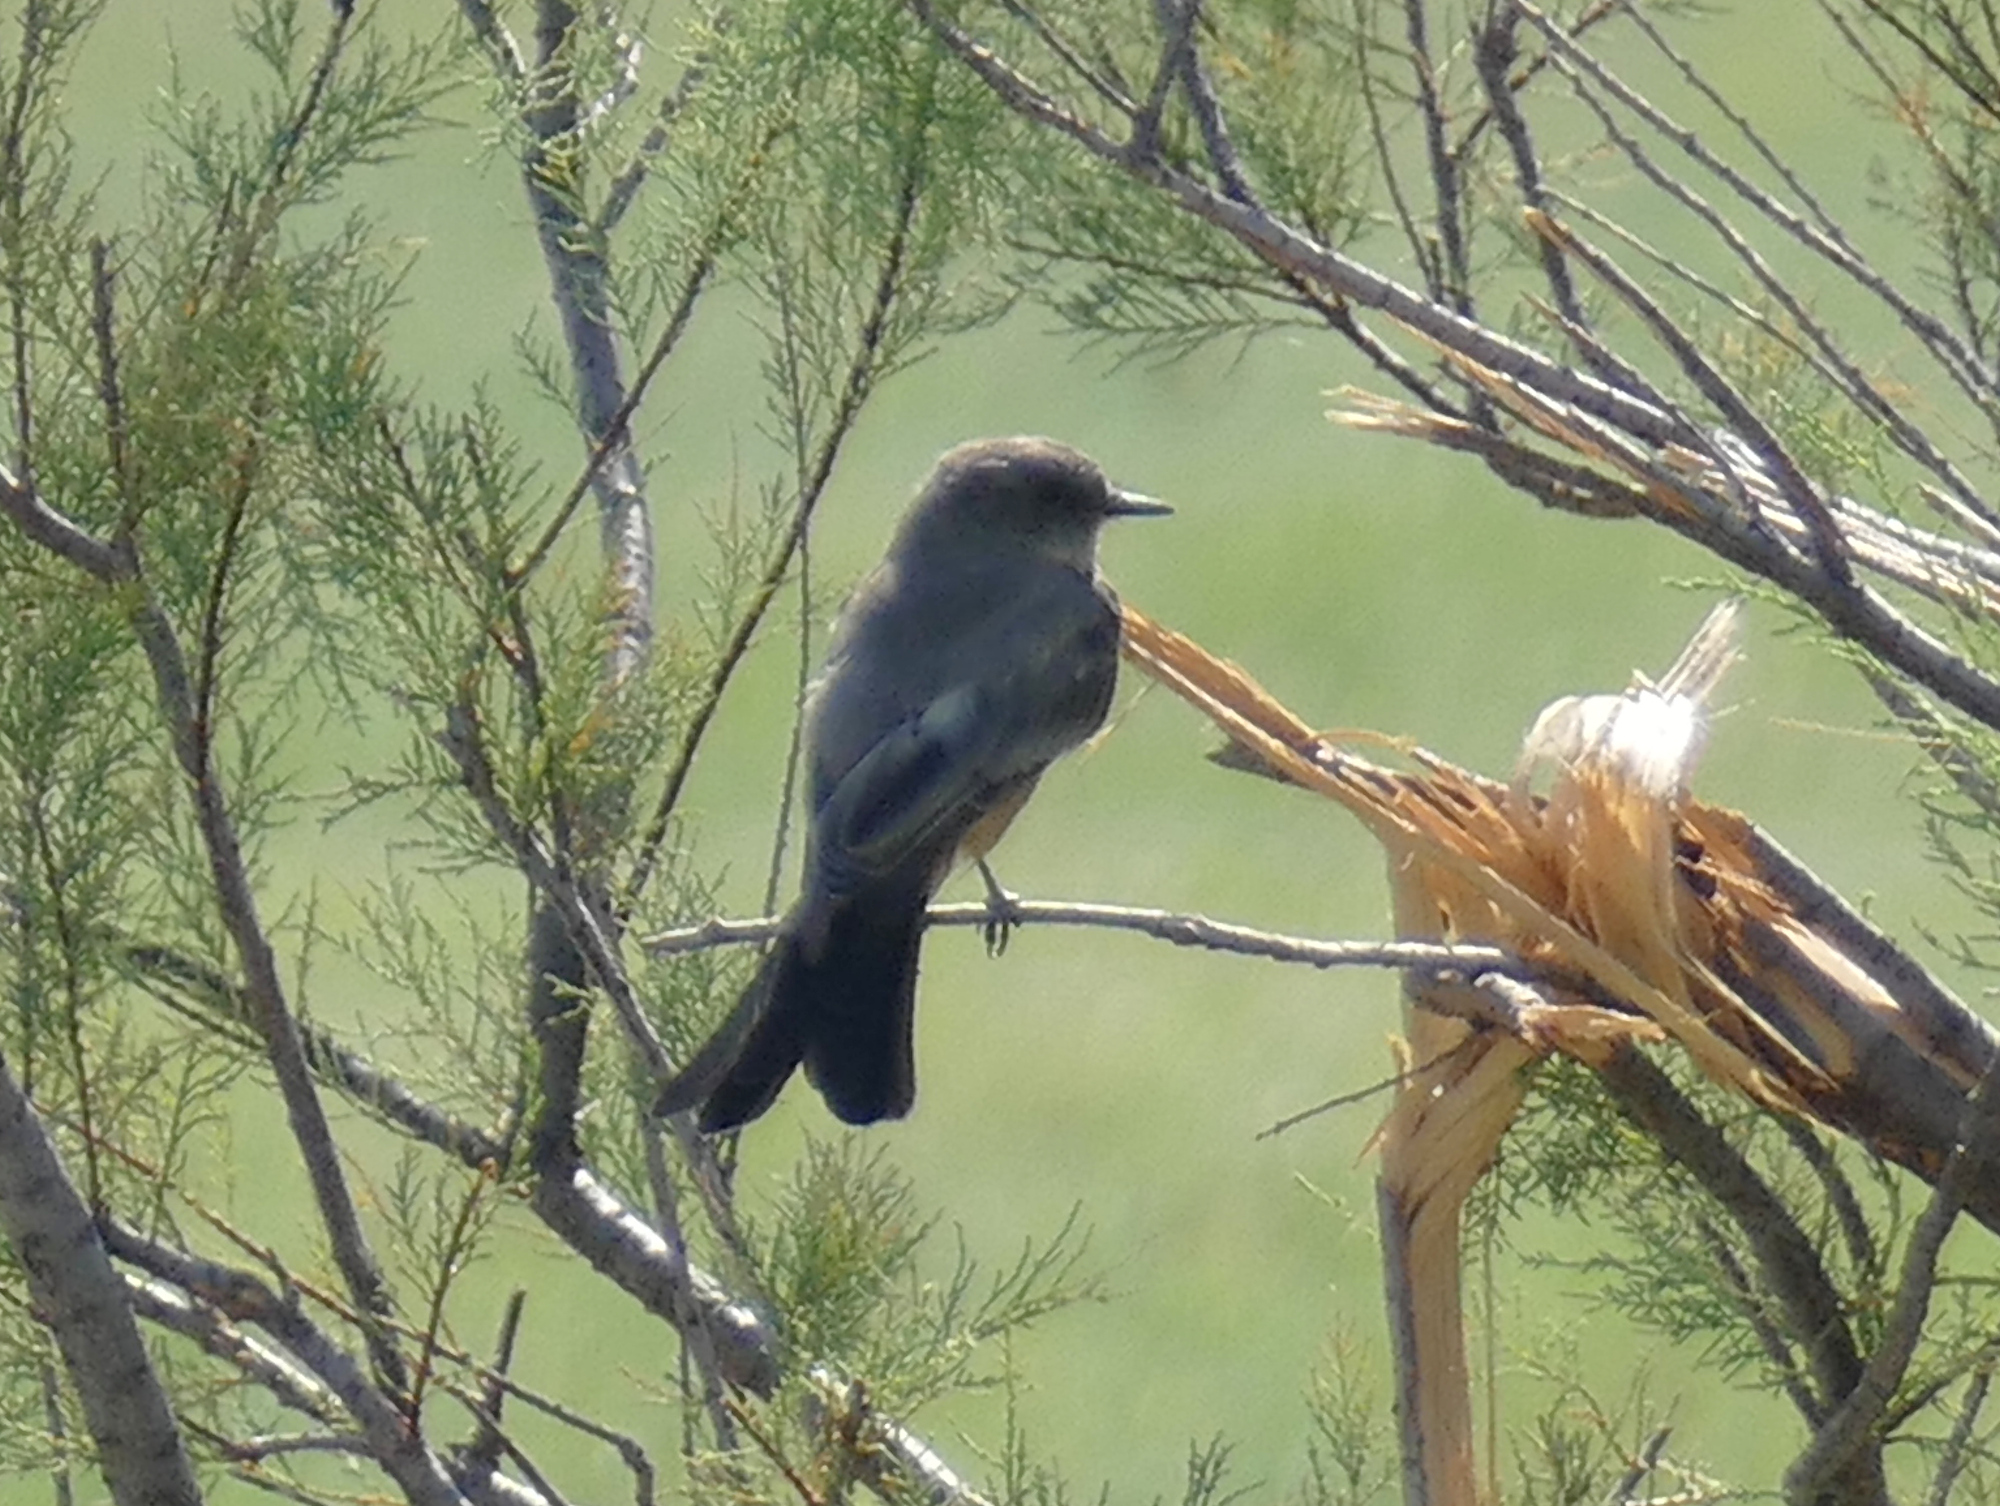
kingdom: Animalia
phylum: Chordata
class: Aves
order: Passeriformes
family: Tyrannidae
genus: Sayornis
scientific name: Sayornis saya
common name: Say's phoebe
